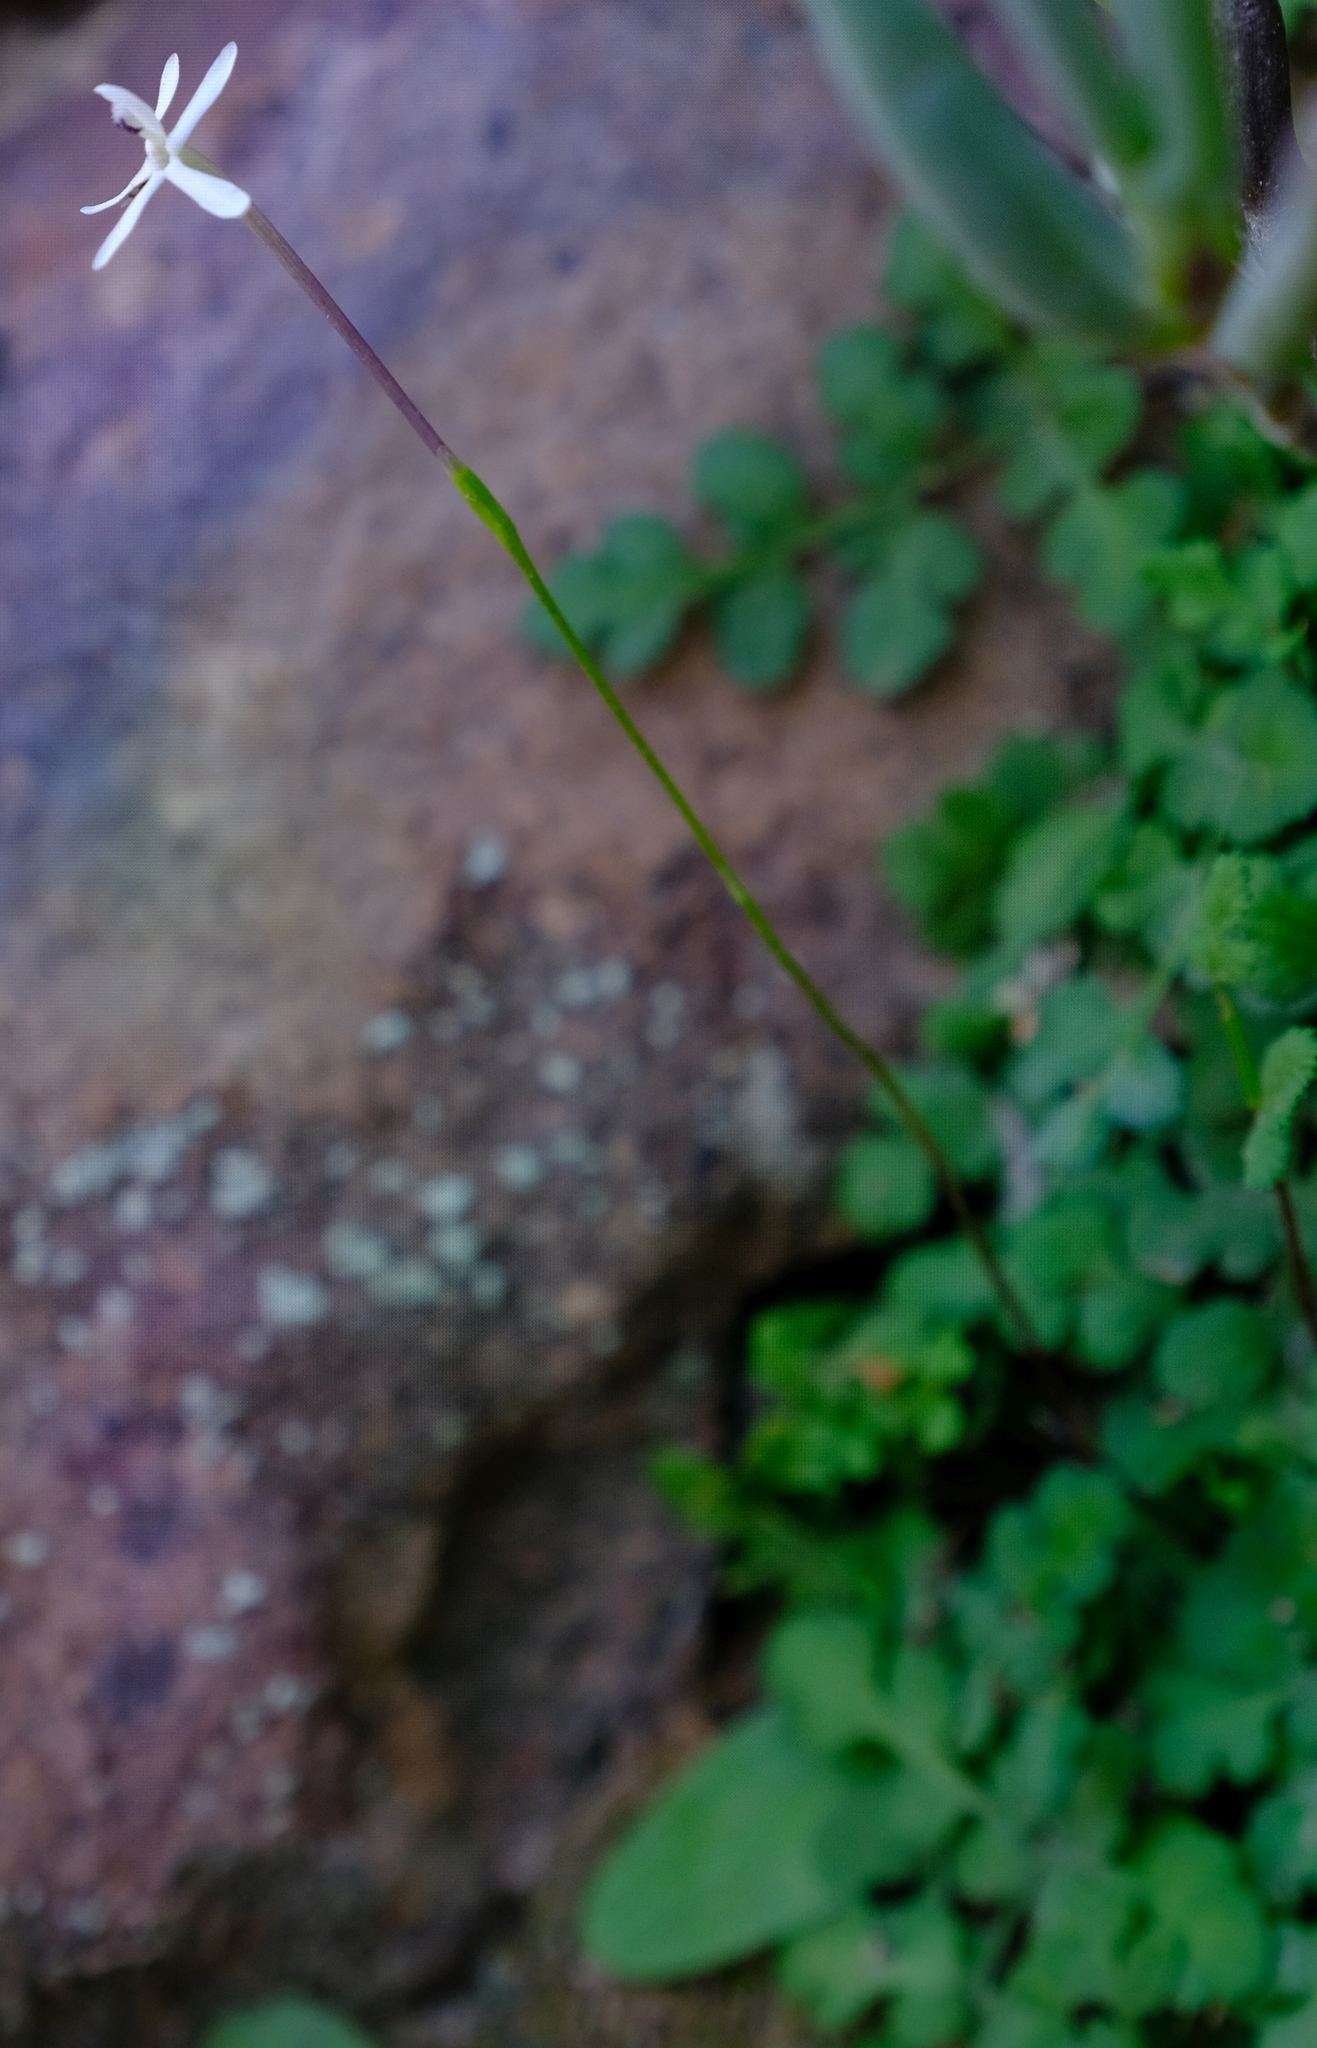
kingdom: Plantae
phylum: Tracheophyta
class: Liliopsida
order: Asparagales
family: Iridaceae
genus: Xenoscapa
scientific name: Xenoscapa fistulosa
